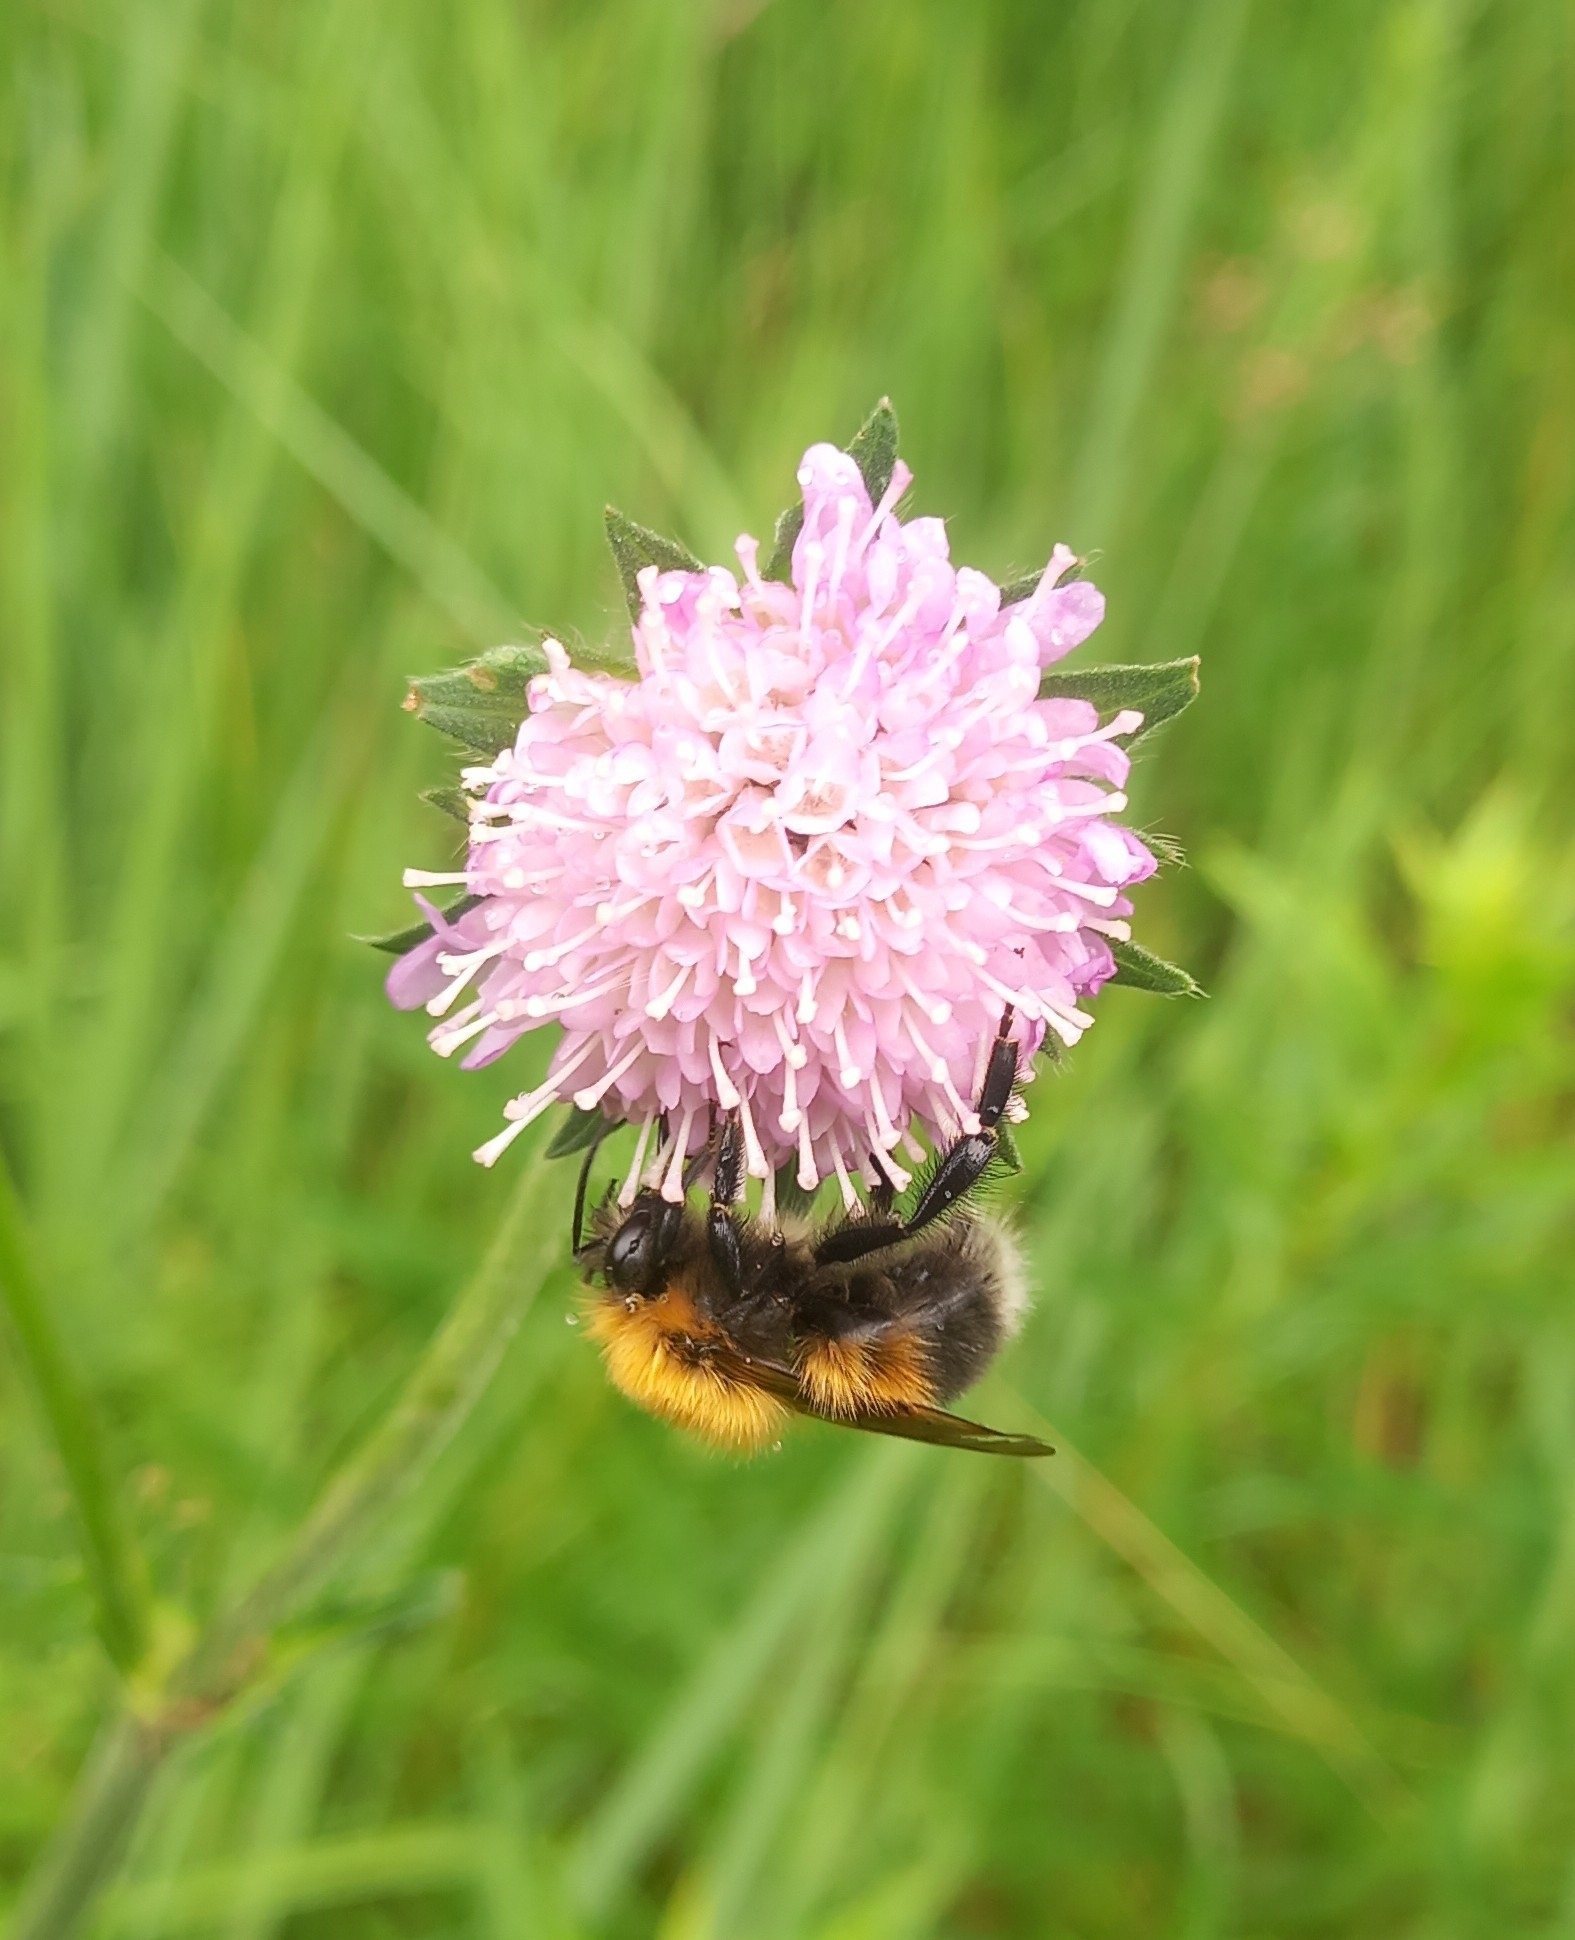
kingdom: Animalia
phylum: Arthropoda
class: Insecta
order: Hymenoptera
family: Apidae
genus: Bombus
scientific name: Bombus hypnorum
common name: New garden bumblebee
